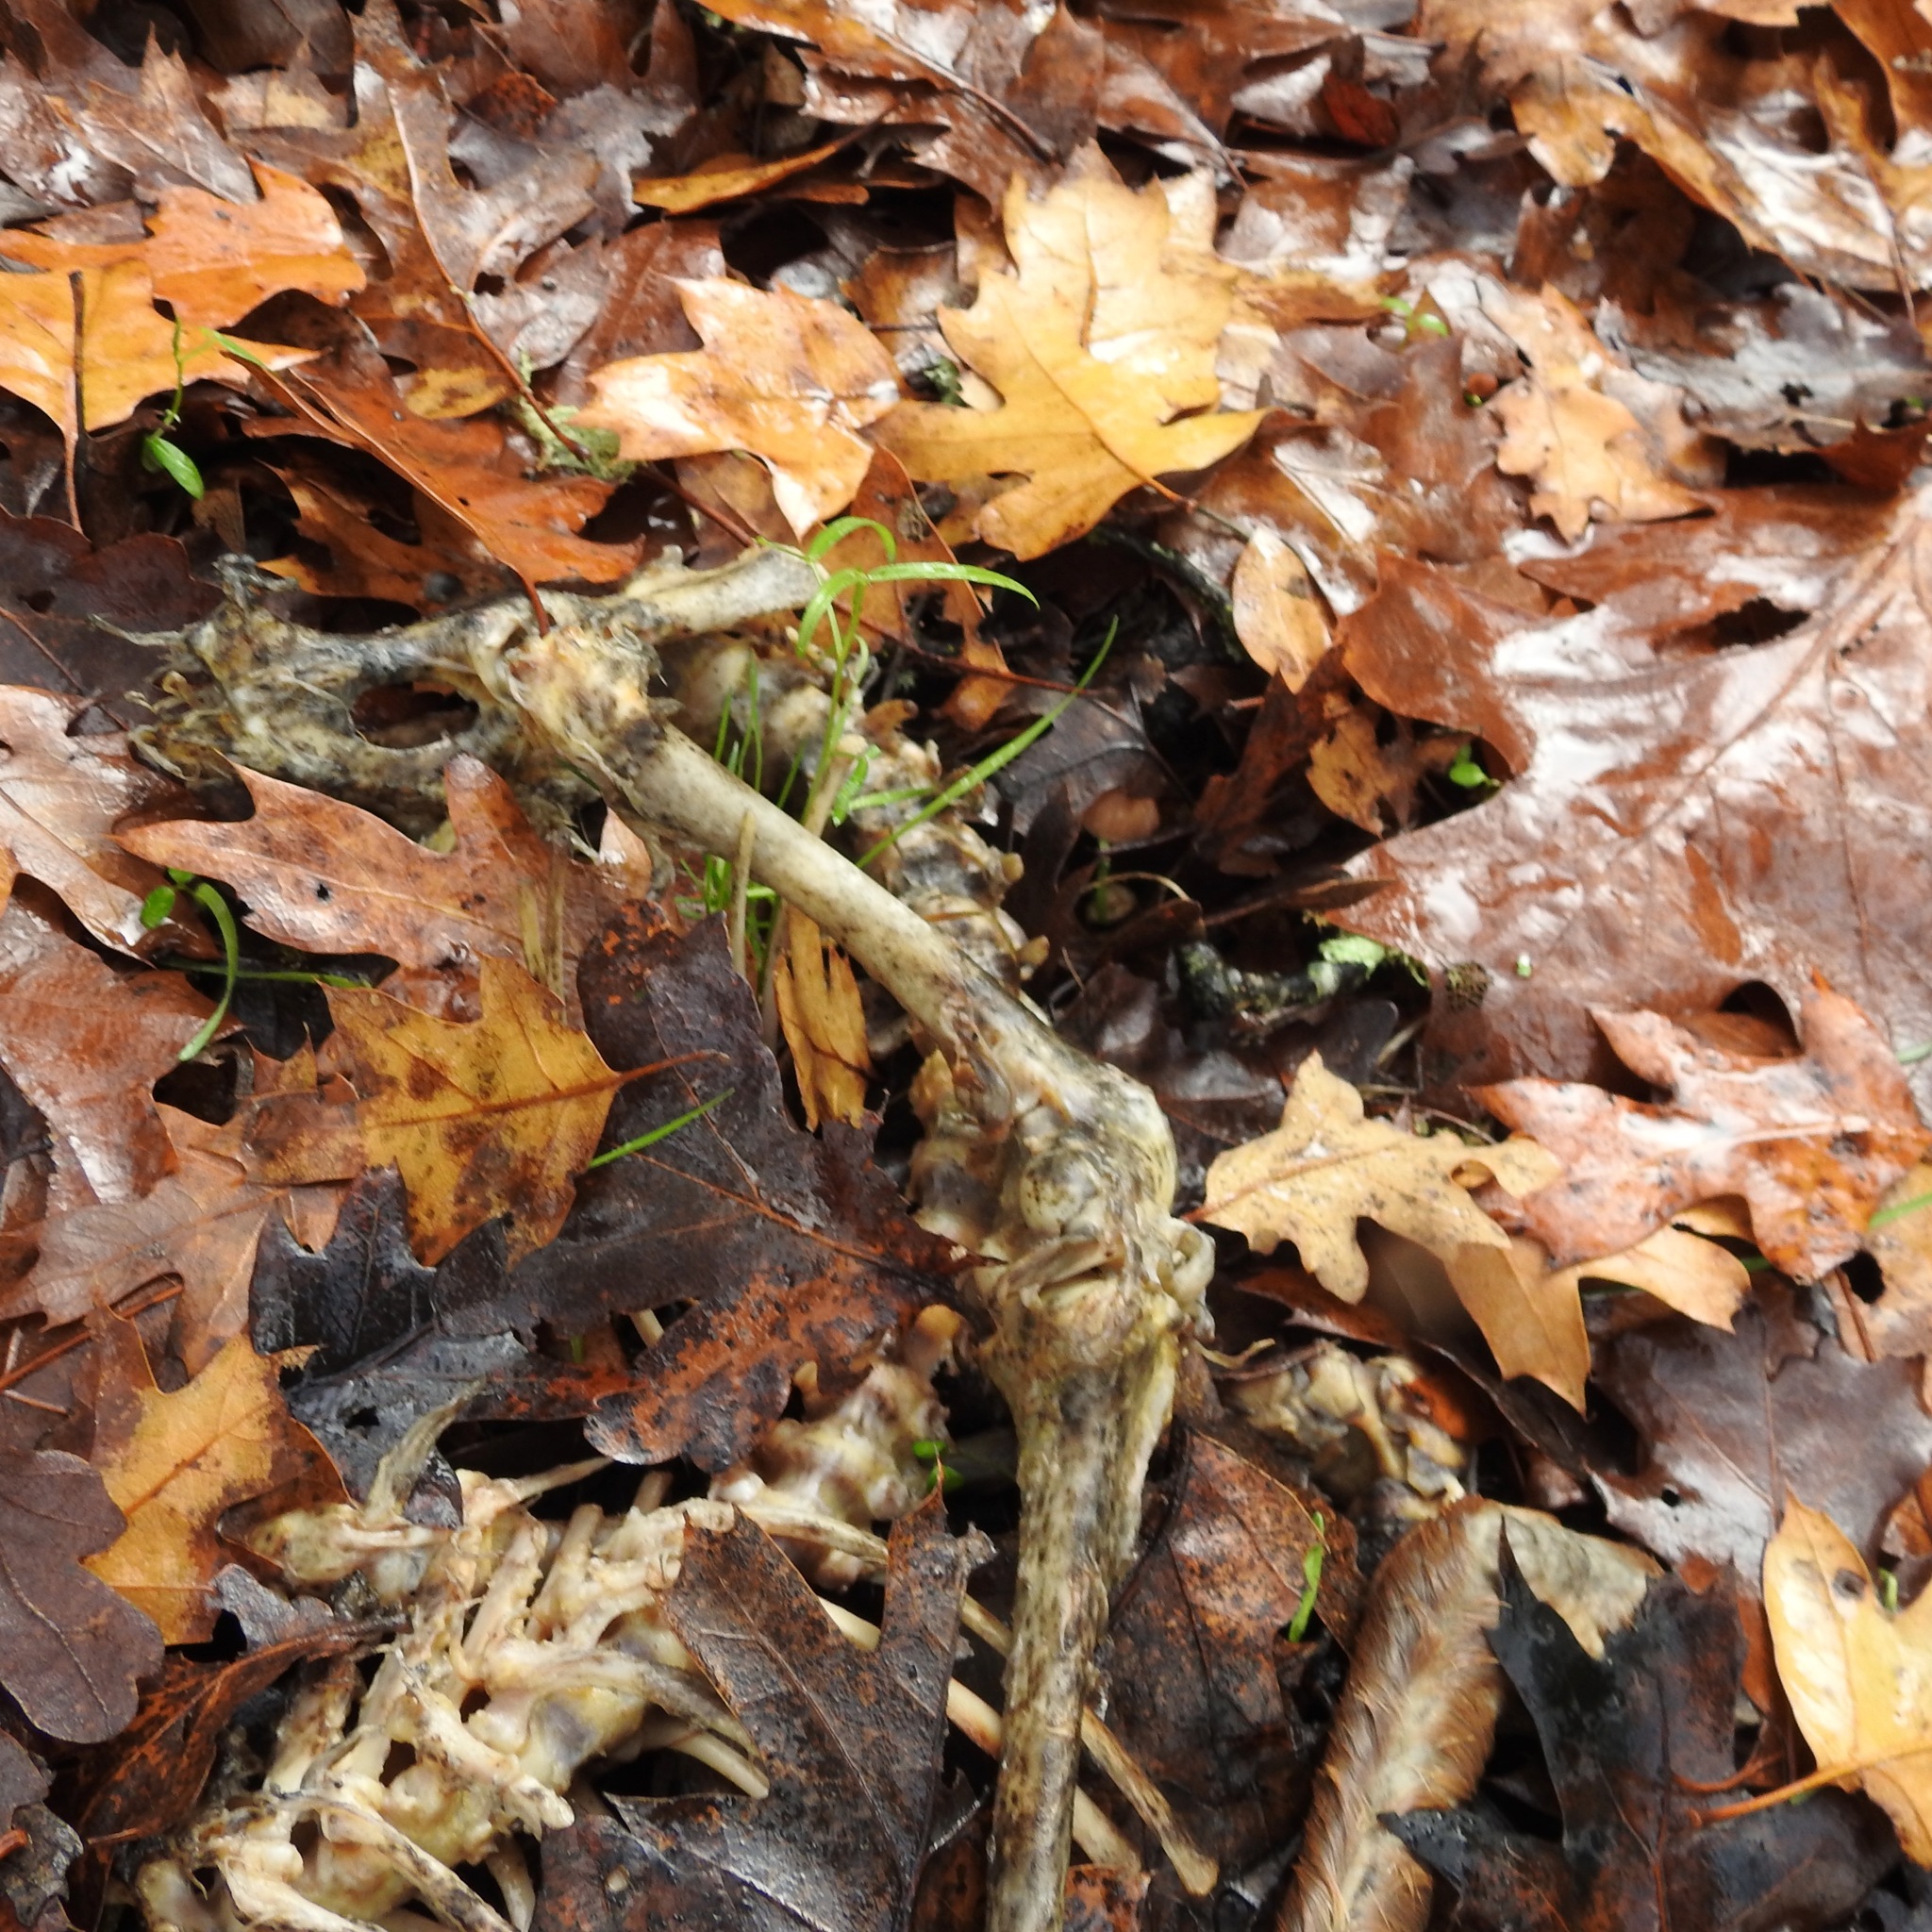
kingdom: Animalia
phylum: Chordata
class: Mammalia
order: Artiodactyla
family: Cervidae
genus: Odocoileus
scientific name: Odocoileus hemionus
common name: Mule deer
